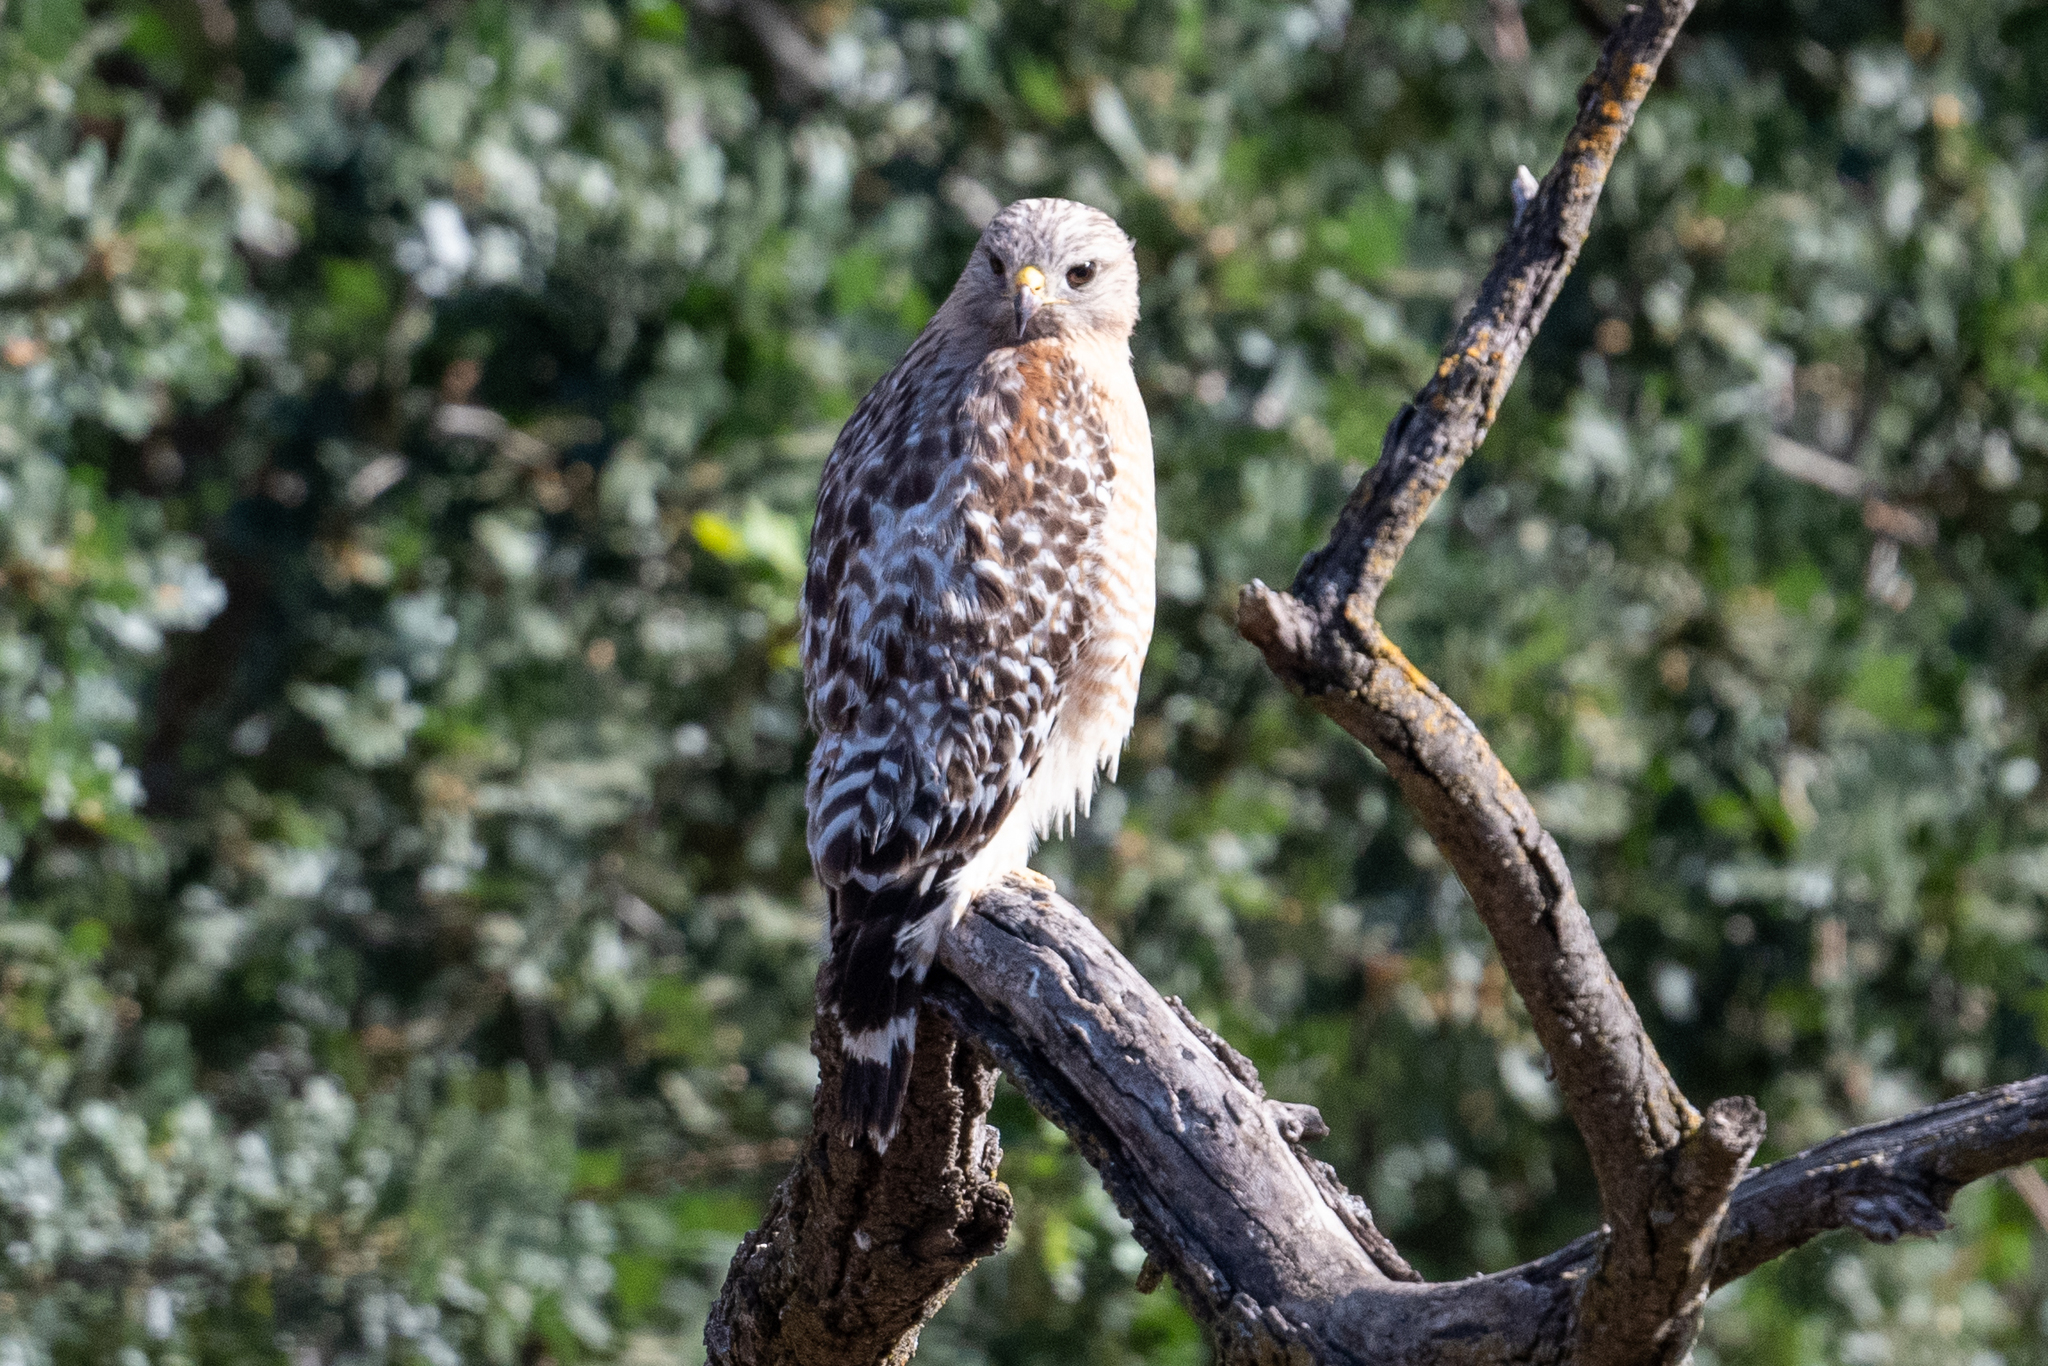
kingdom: Animalia
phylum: Chordata
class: Aves
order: Accipitriformes
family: Accipitridae
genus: Buteo
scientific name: Buteo lineatus
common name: Red-shouldered hawk
